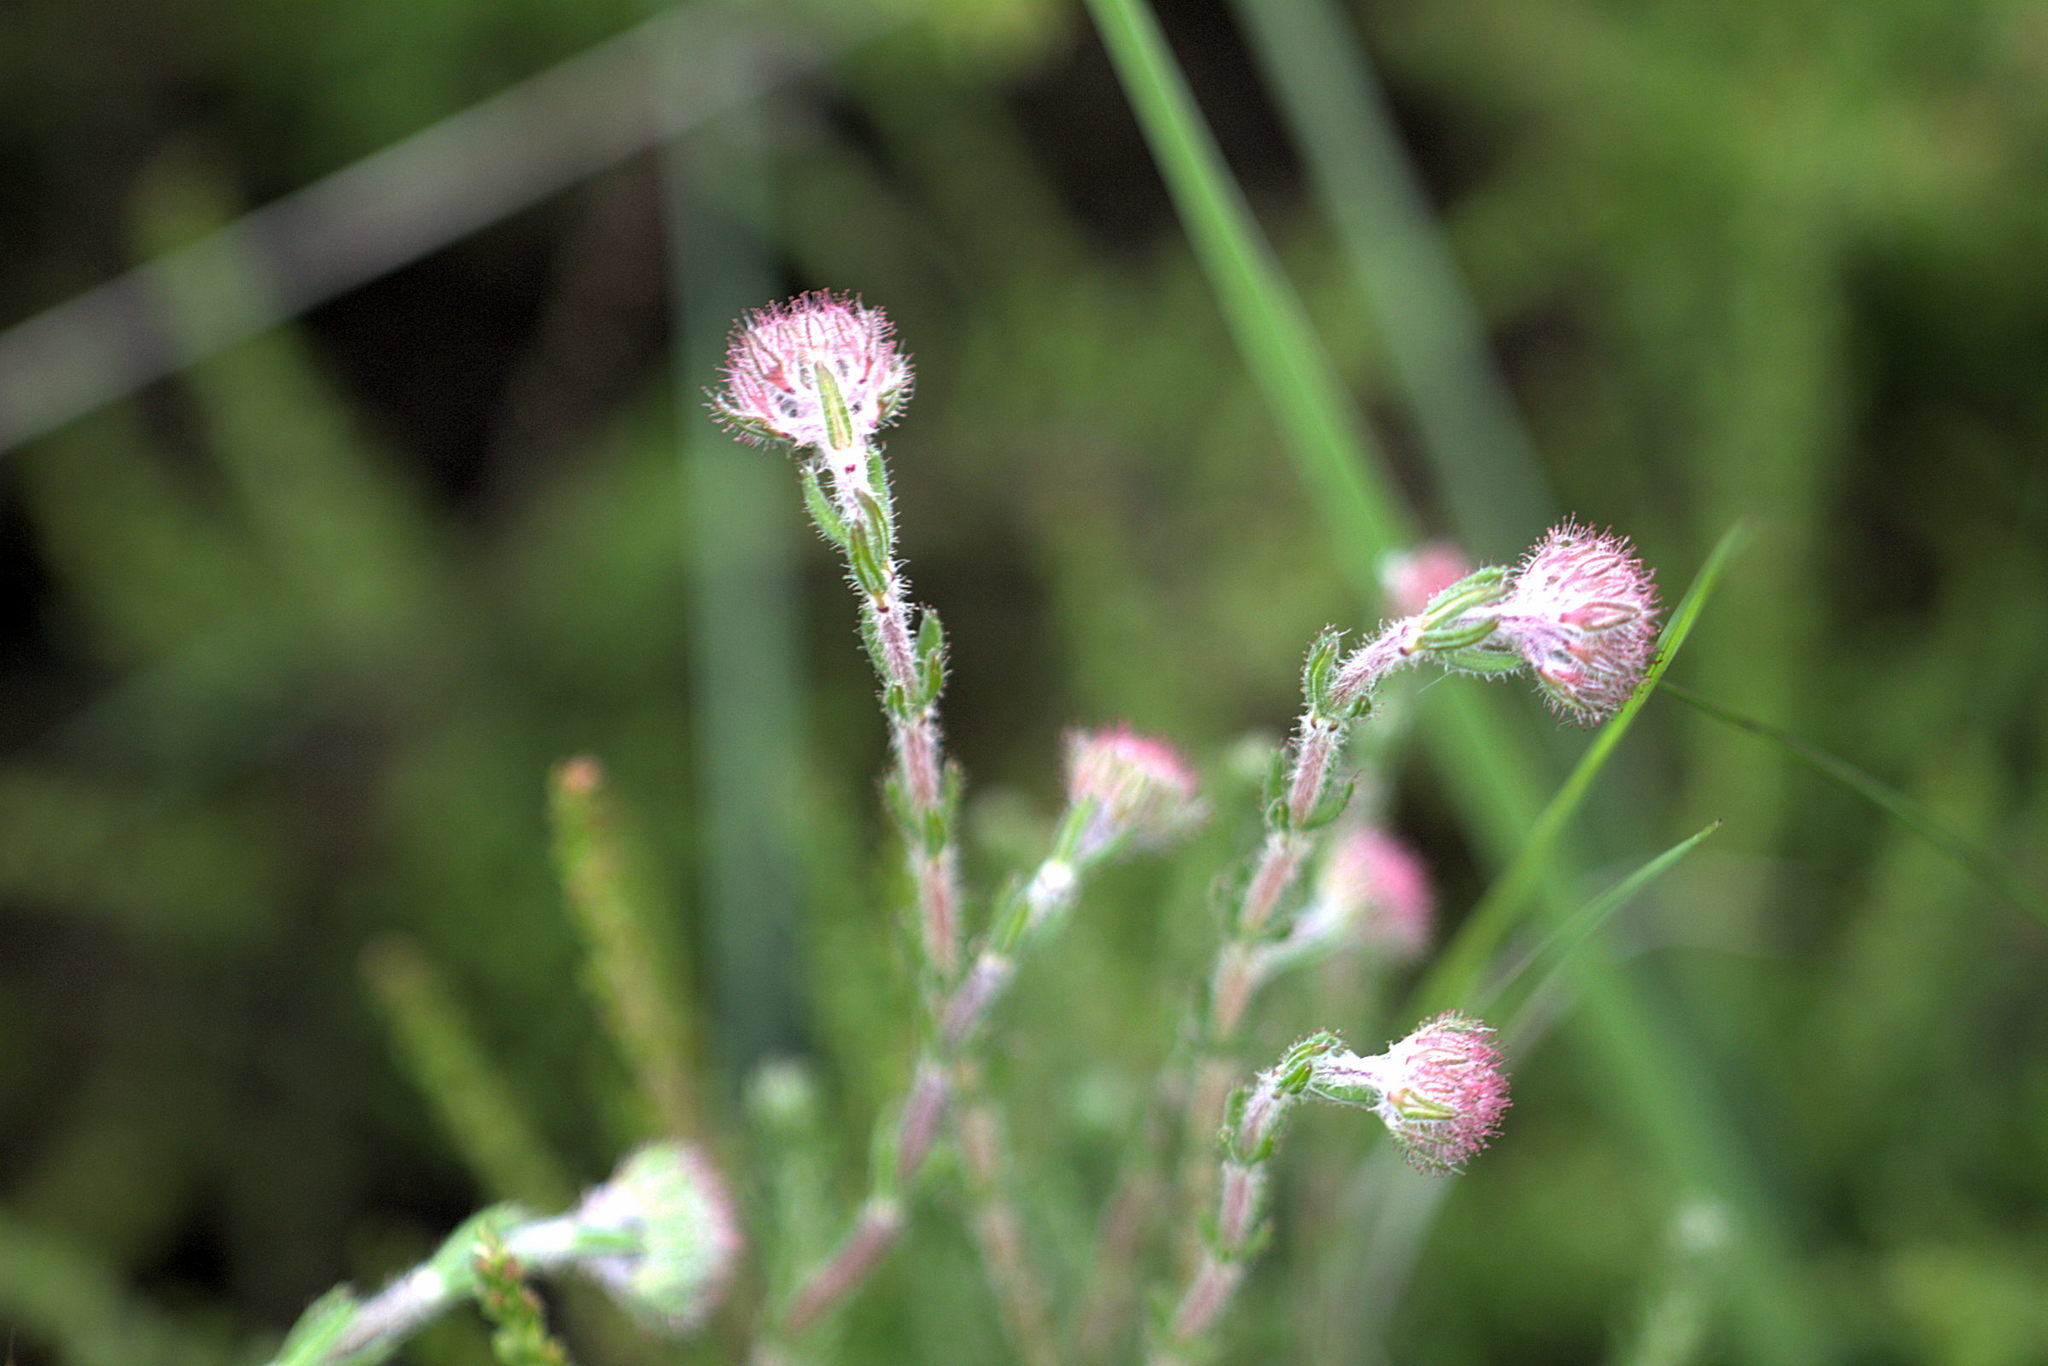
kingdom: Plantae
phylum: Tracheophyta
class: Magnoliopsida
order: Ericales
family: Ericaceae
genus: Erica
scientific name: Erica tetralix
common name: Cross-leaved heath
